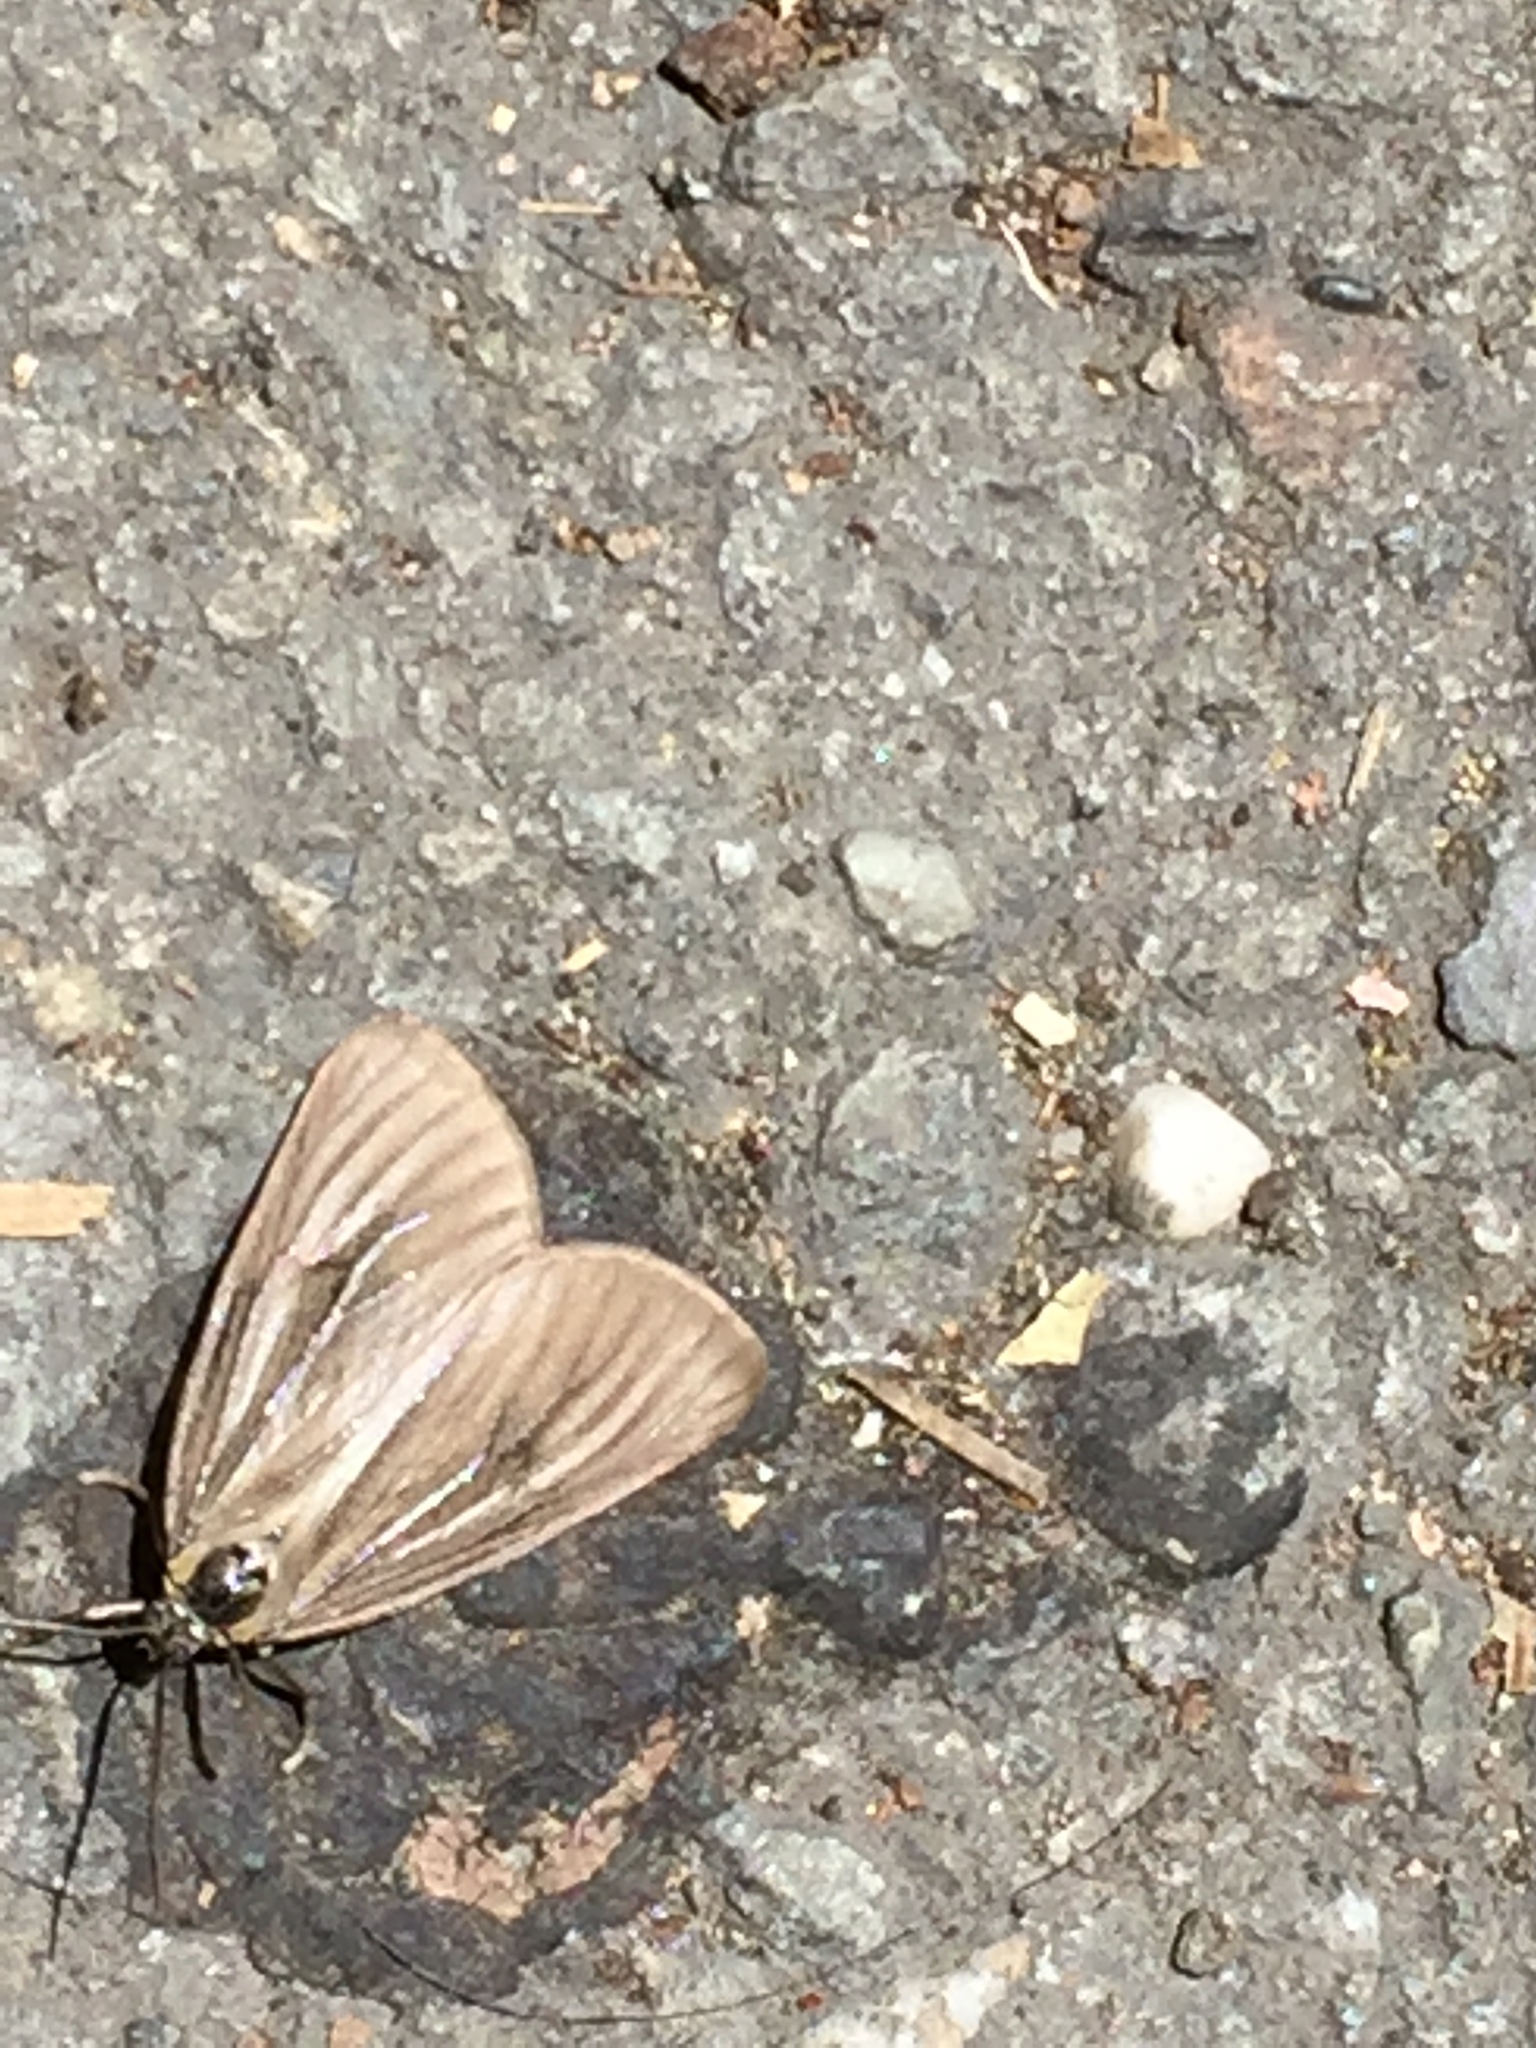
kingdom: Animalia
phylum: Arthropoda
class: Insecta
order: Lepidoptera
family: Notodontidae
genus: Phryganidia
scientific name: Phryganidia californica
